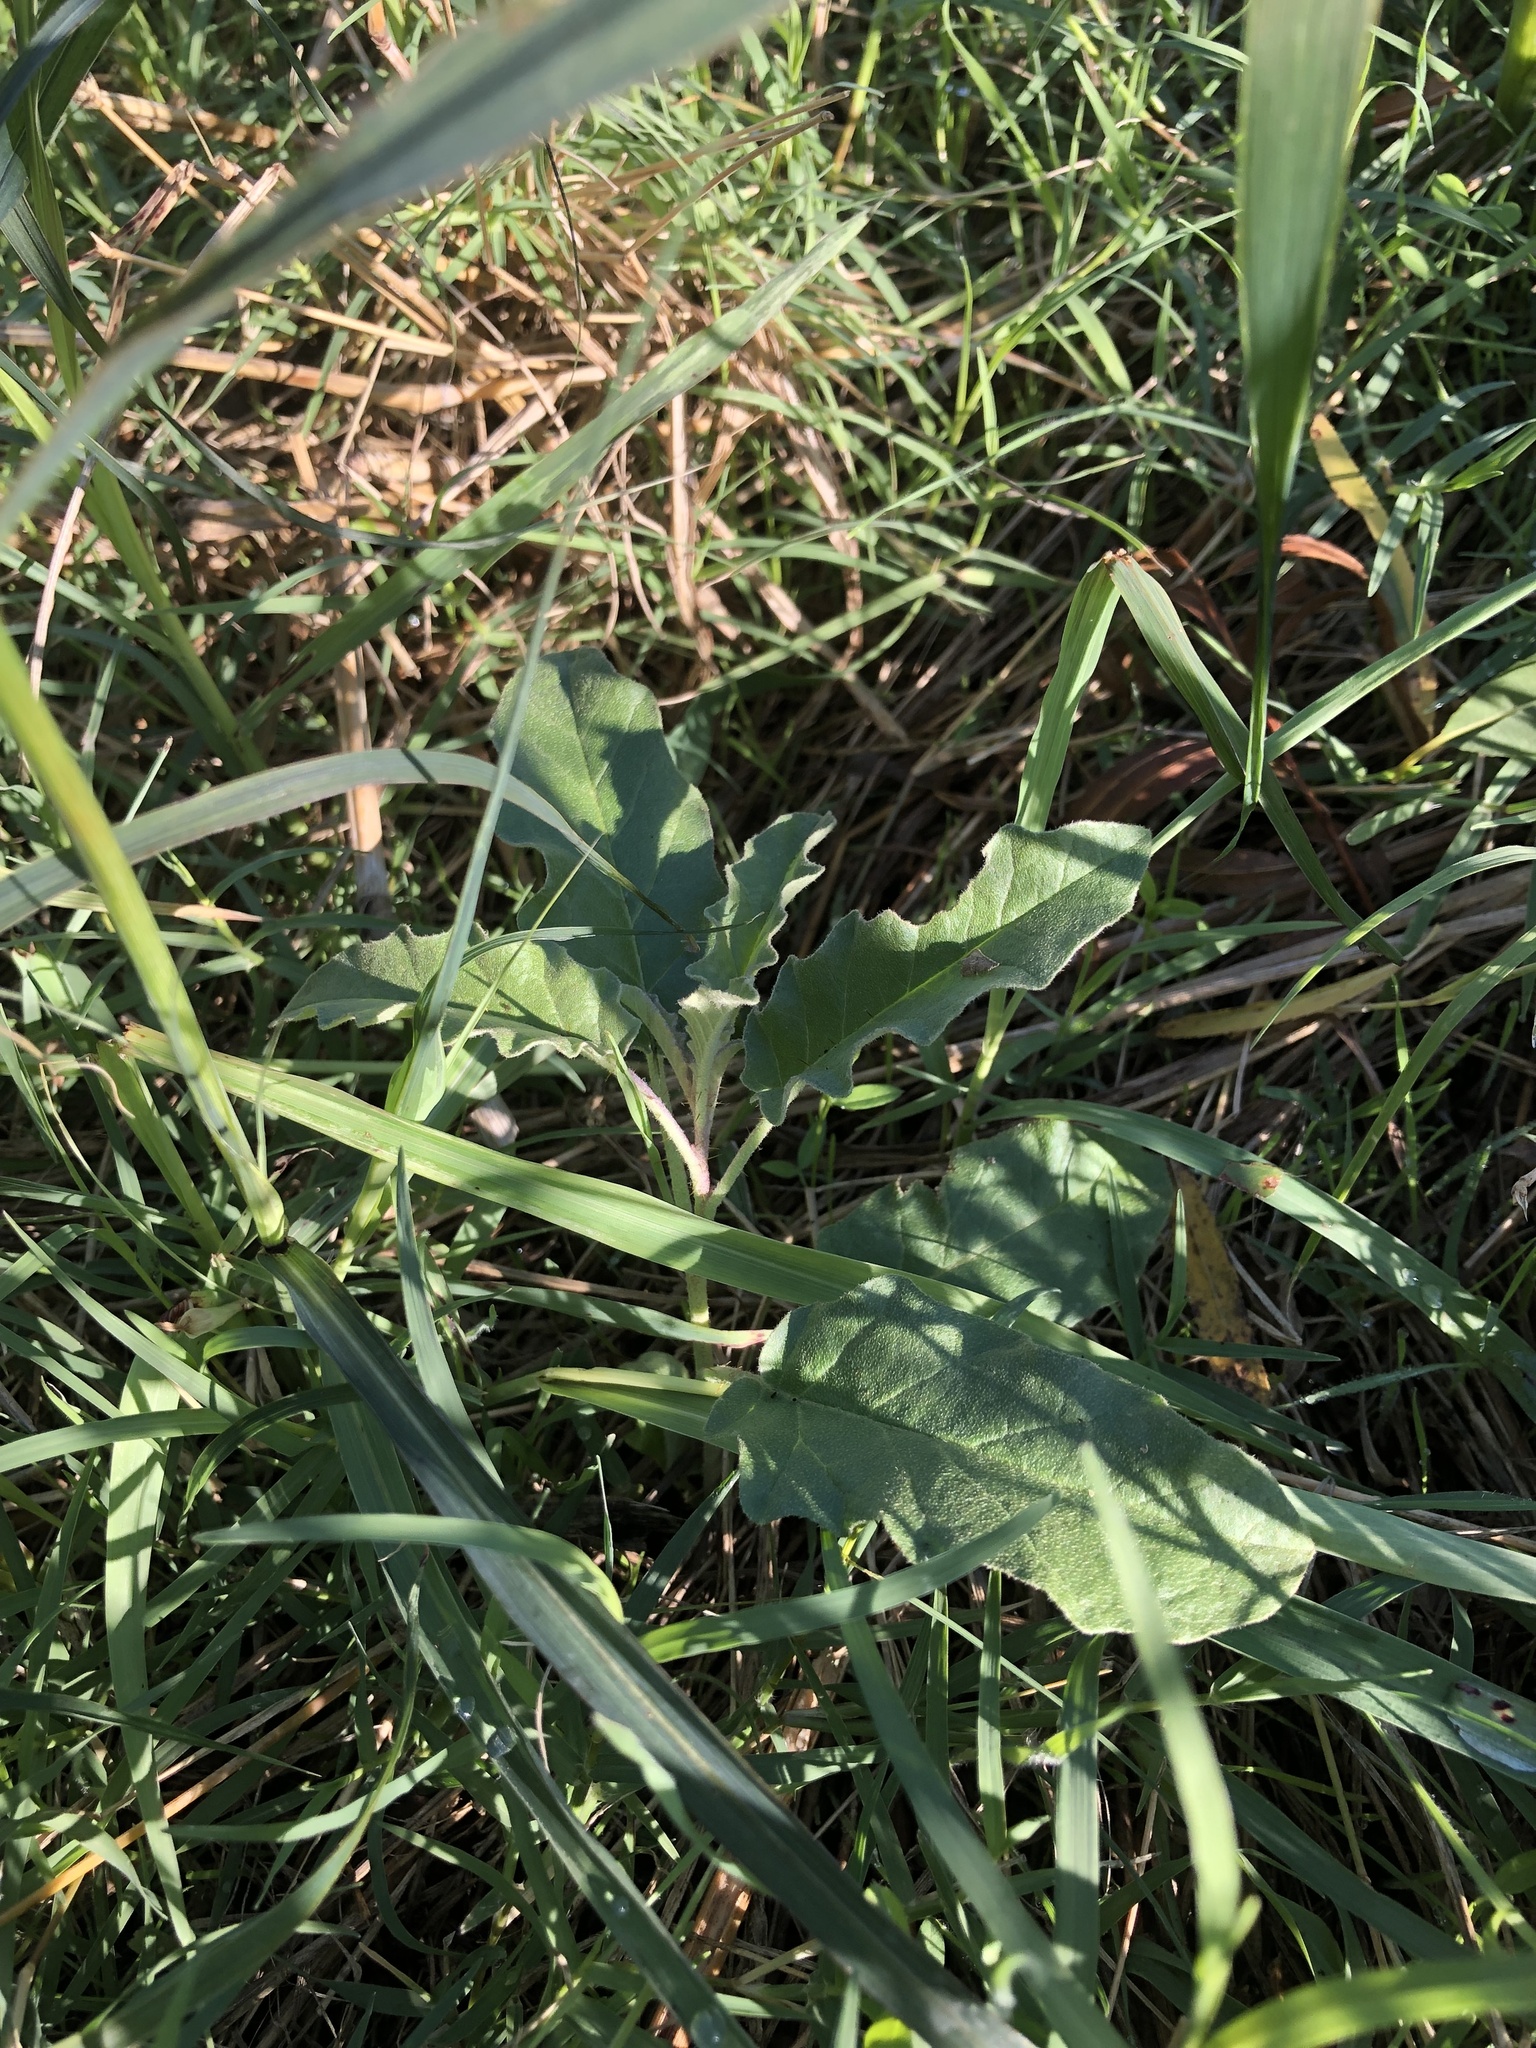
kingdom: Plantae
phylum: Tracheophyta
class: Magnoliopsida
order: Solanales
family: Solanaceae
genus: Solanum
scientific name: Solanum elaeagnifolium
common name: Silverleaf nightshade
